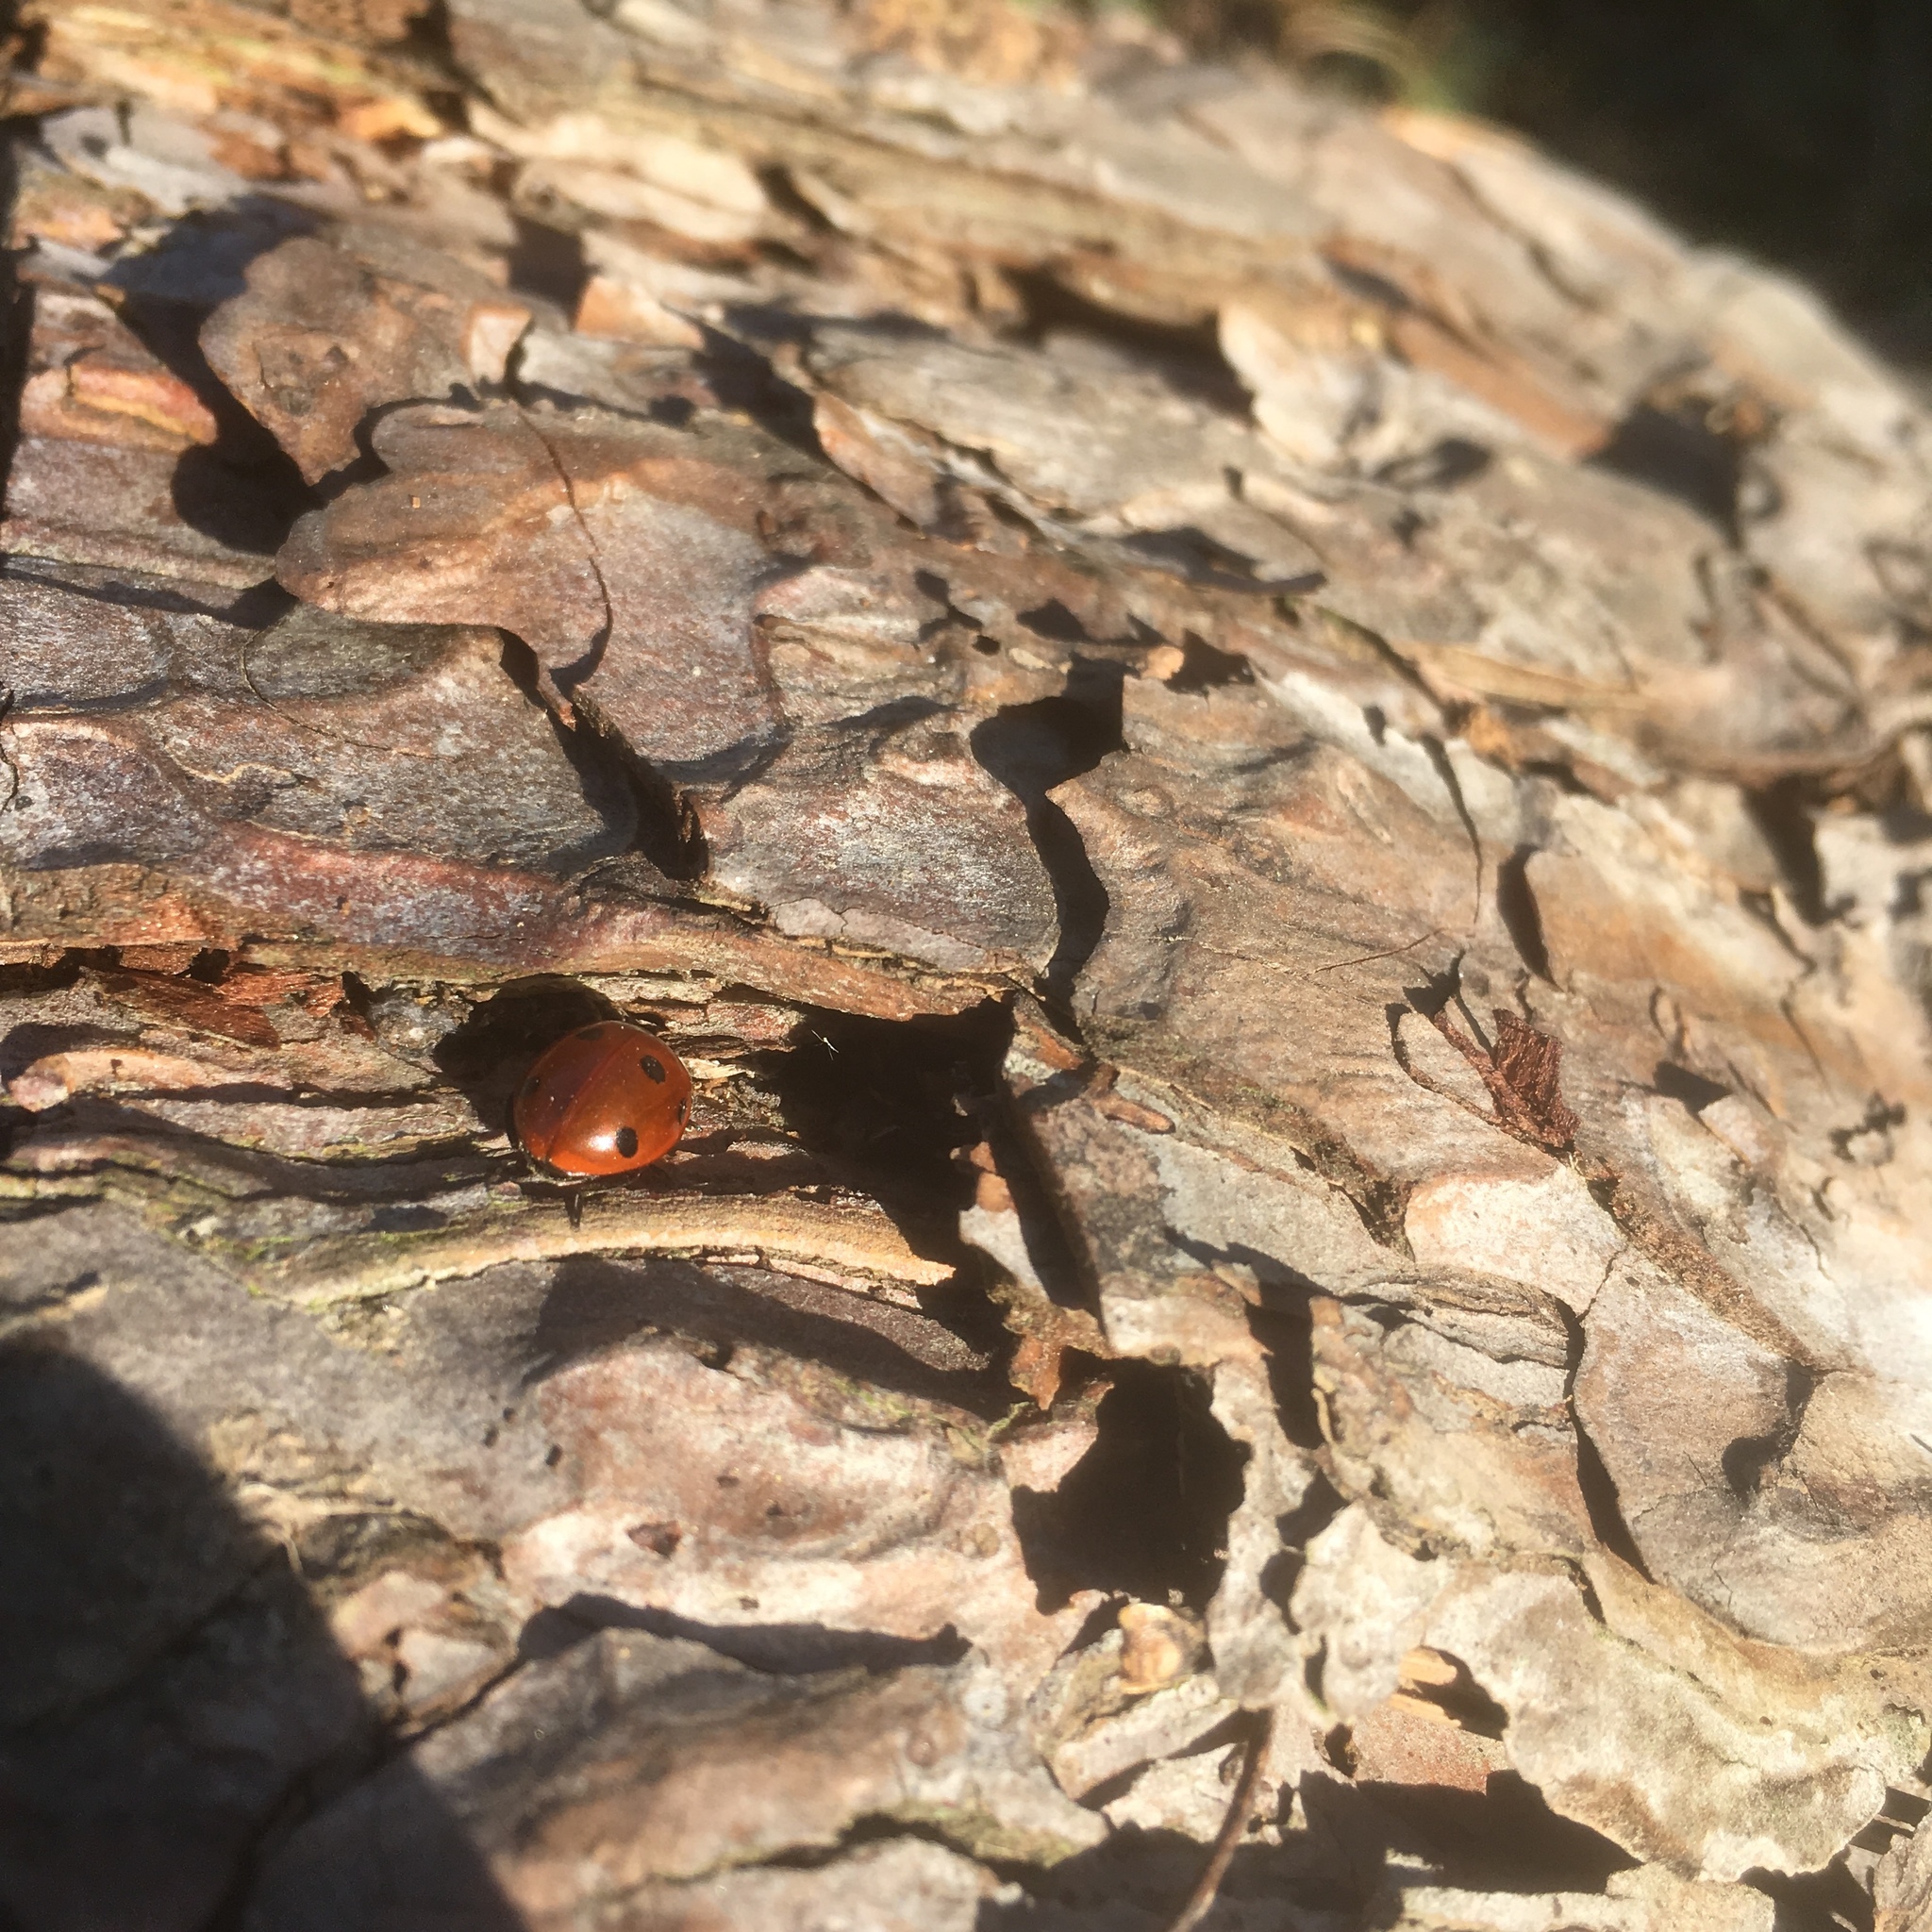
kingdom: Animalia
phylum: Arthropoda
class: Insecta
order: Coleoptera
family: Coccinellidae
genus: Coccinella
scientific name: Coccinella septempunctata
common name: Sevenspotted lady beetle
